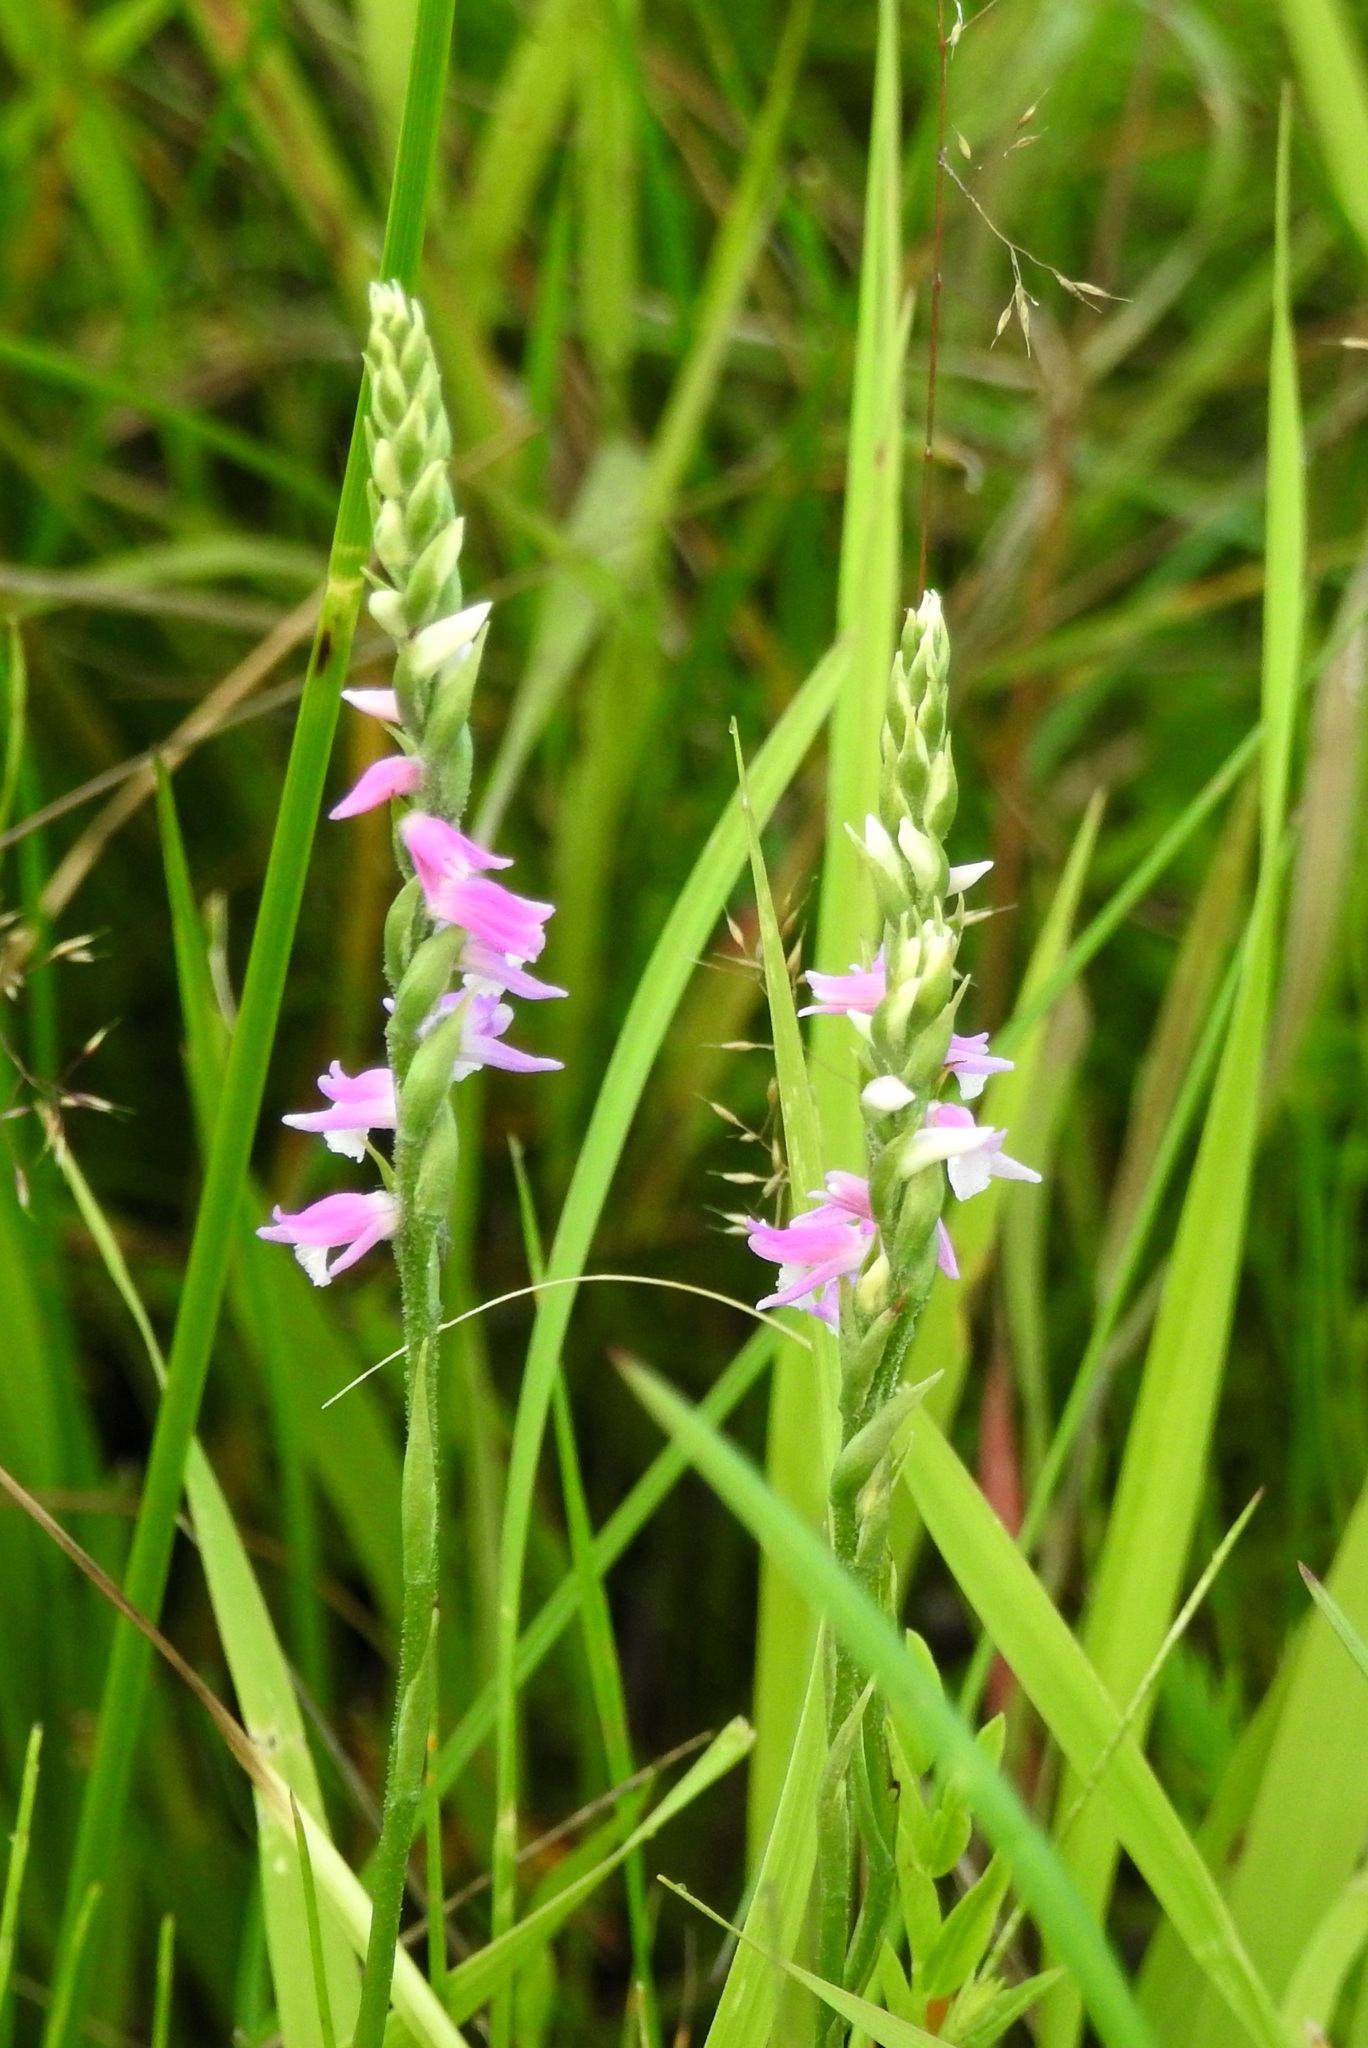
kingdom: Plantae
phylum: Tracheophyta
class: Liliopsida
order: Asparagales
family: Orchidaceae
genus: Spiranthes
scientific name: Spiranthes australis
